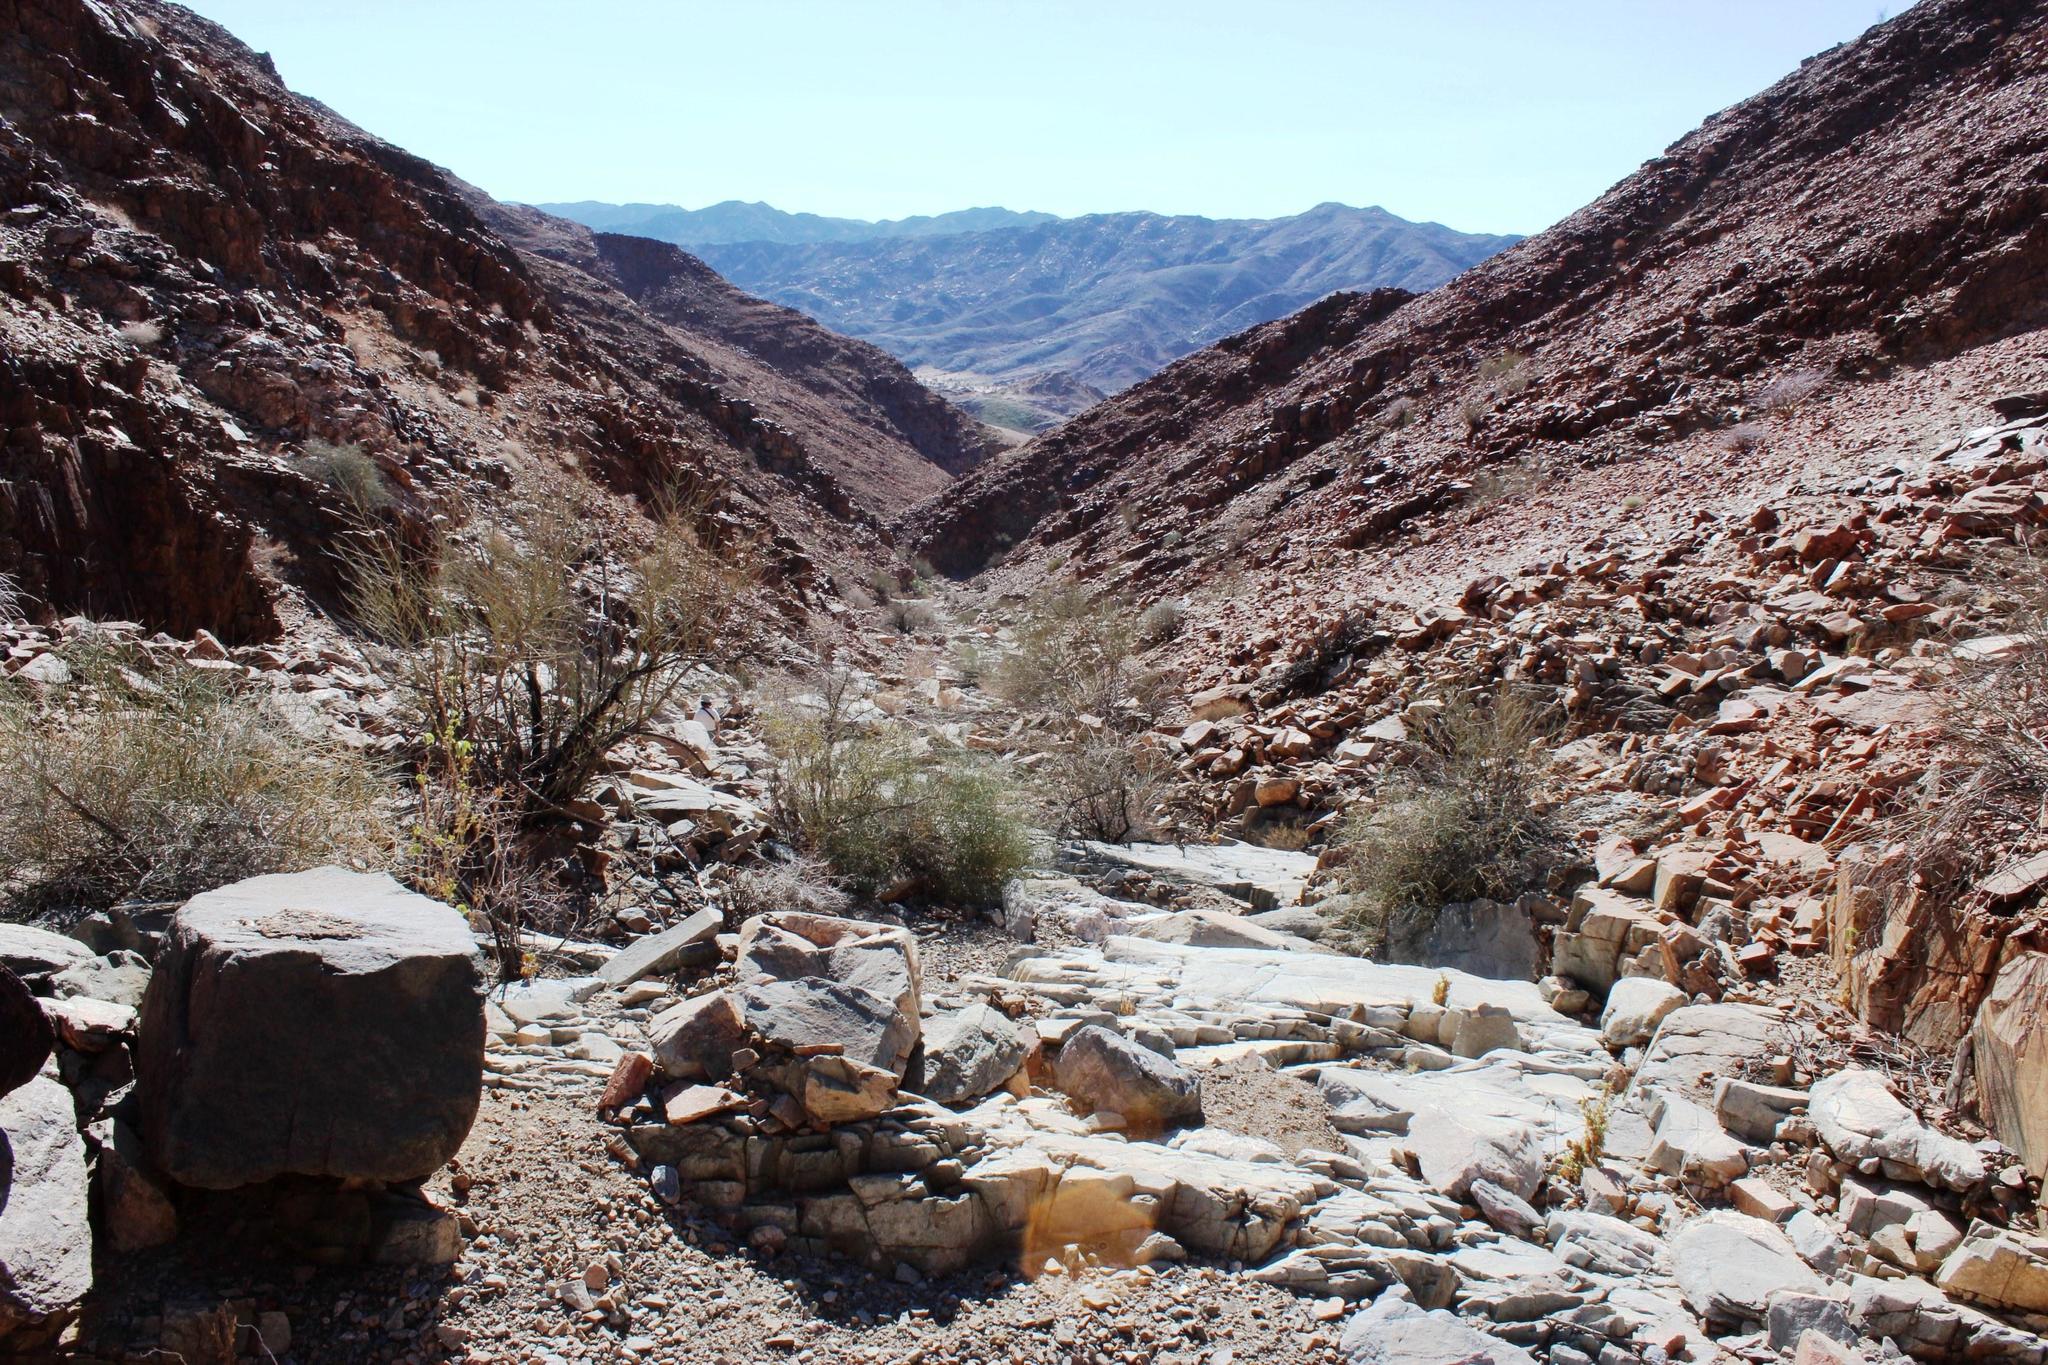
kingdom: Plantae
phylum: Tracheophyta
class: Magnoliopsida
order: Celastrales
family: Celastraceae
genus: Gymnosporia
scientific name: Gymnosporia gariepensis
